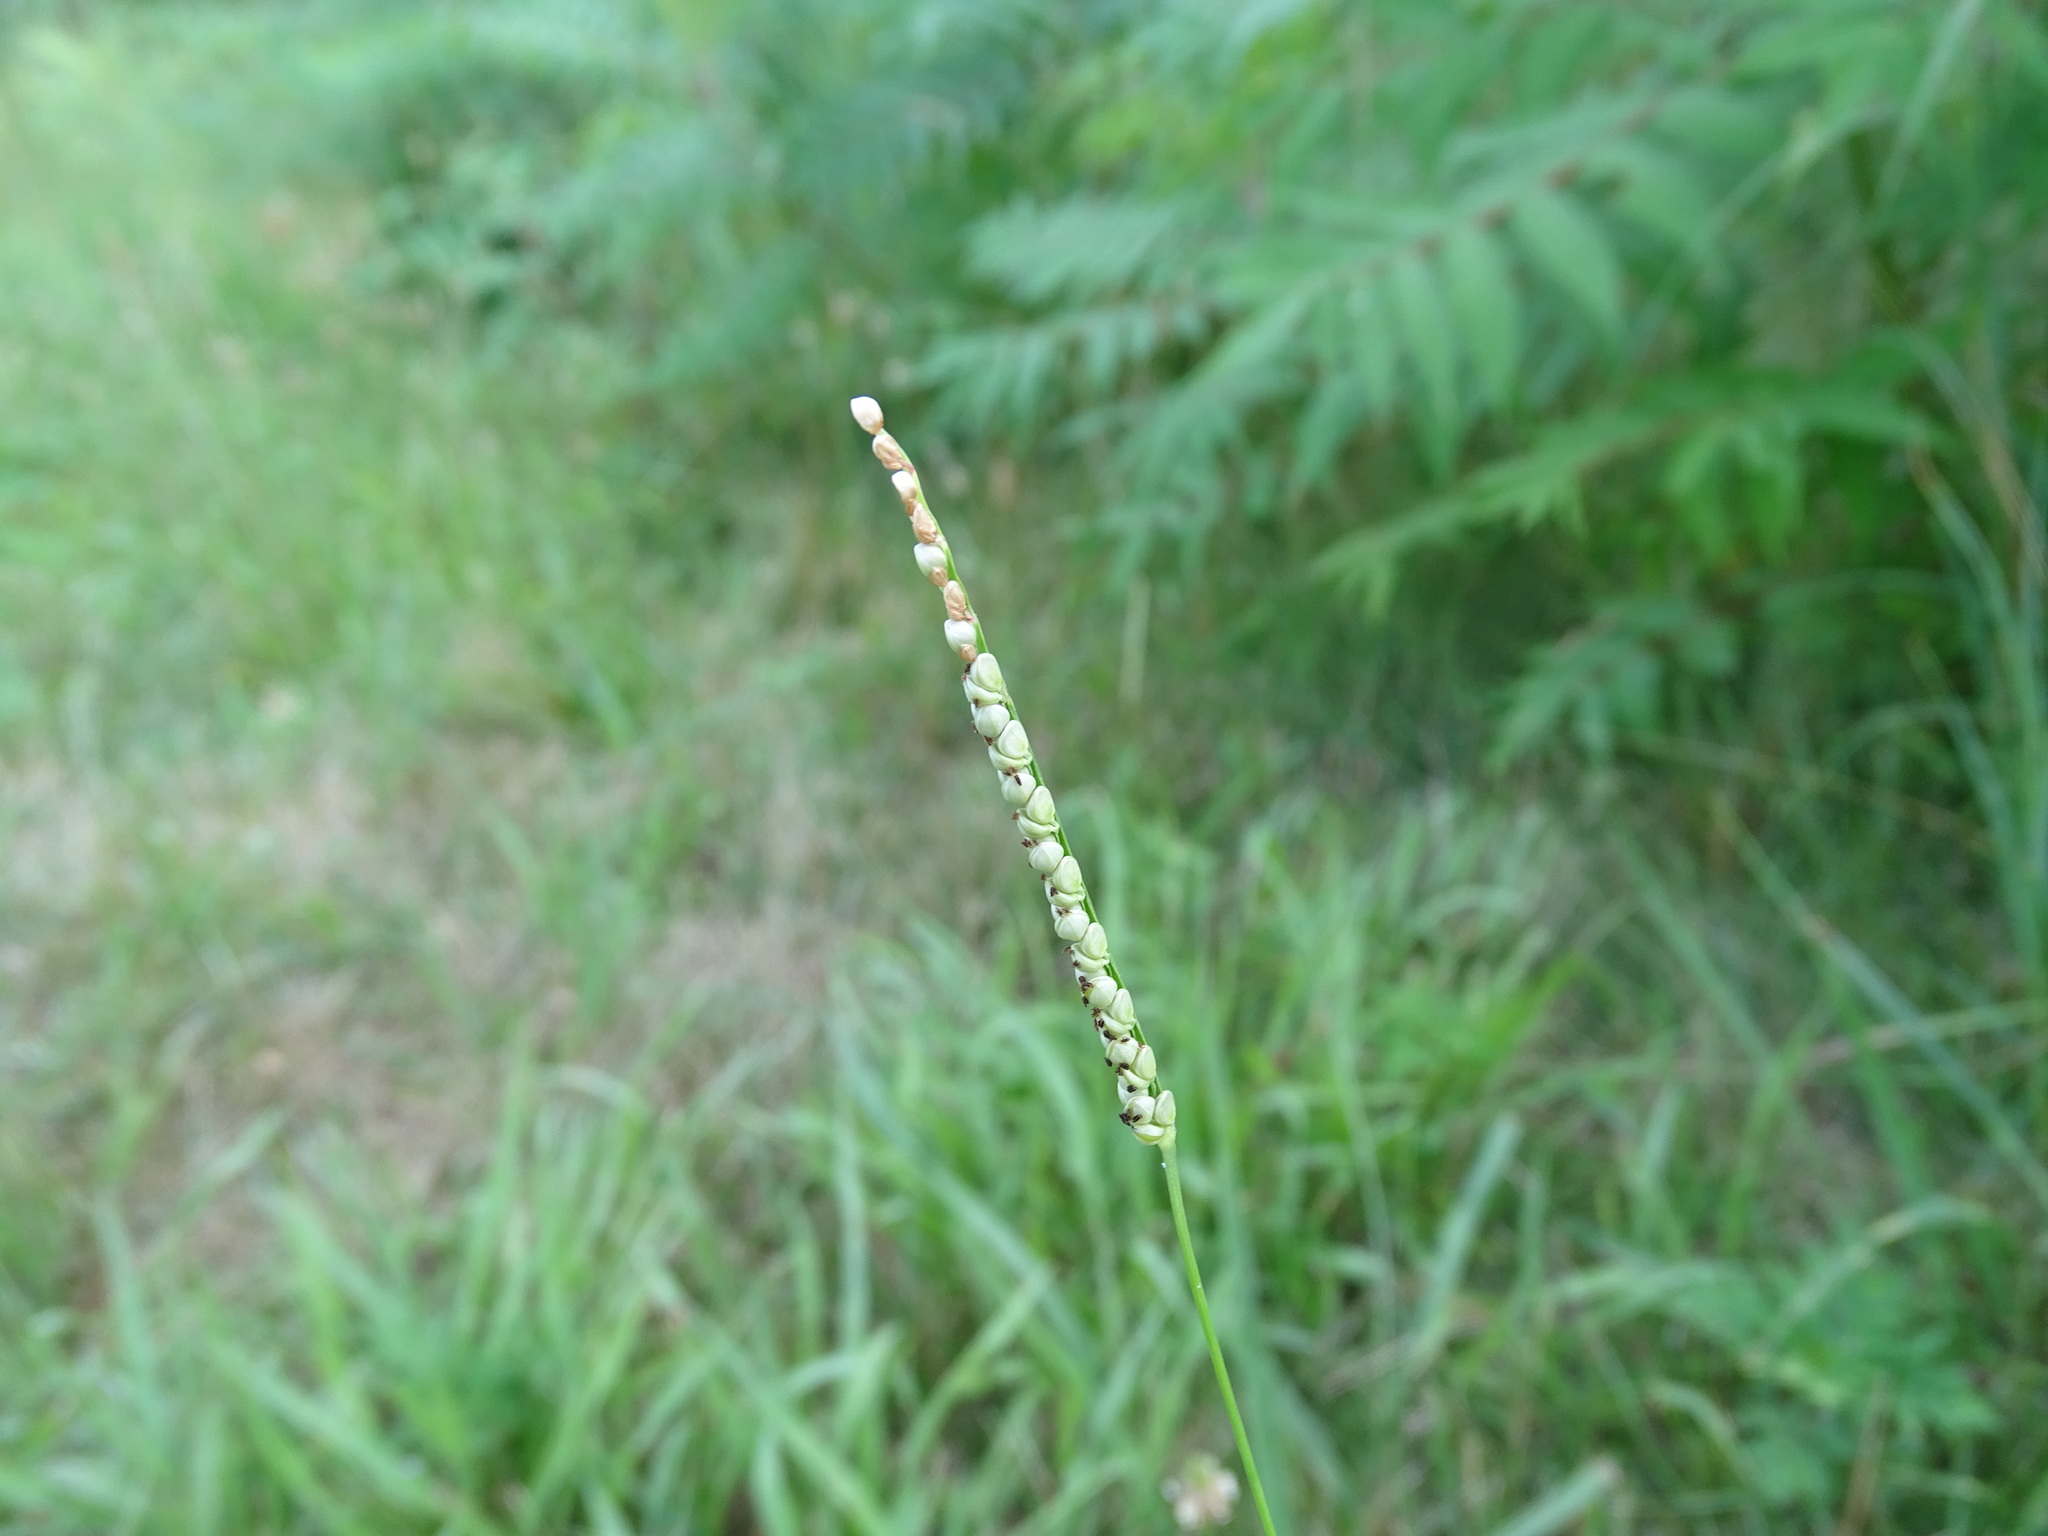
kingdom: Plantae
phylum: Tracheophyta
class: Liliopsida
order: Poales
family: Poaceae
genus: Paspalum
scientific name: Paspalum setaceum
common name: Slender paspalum
